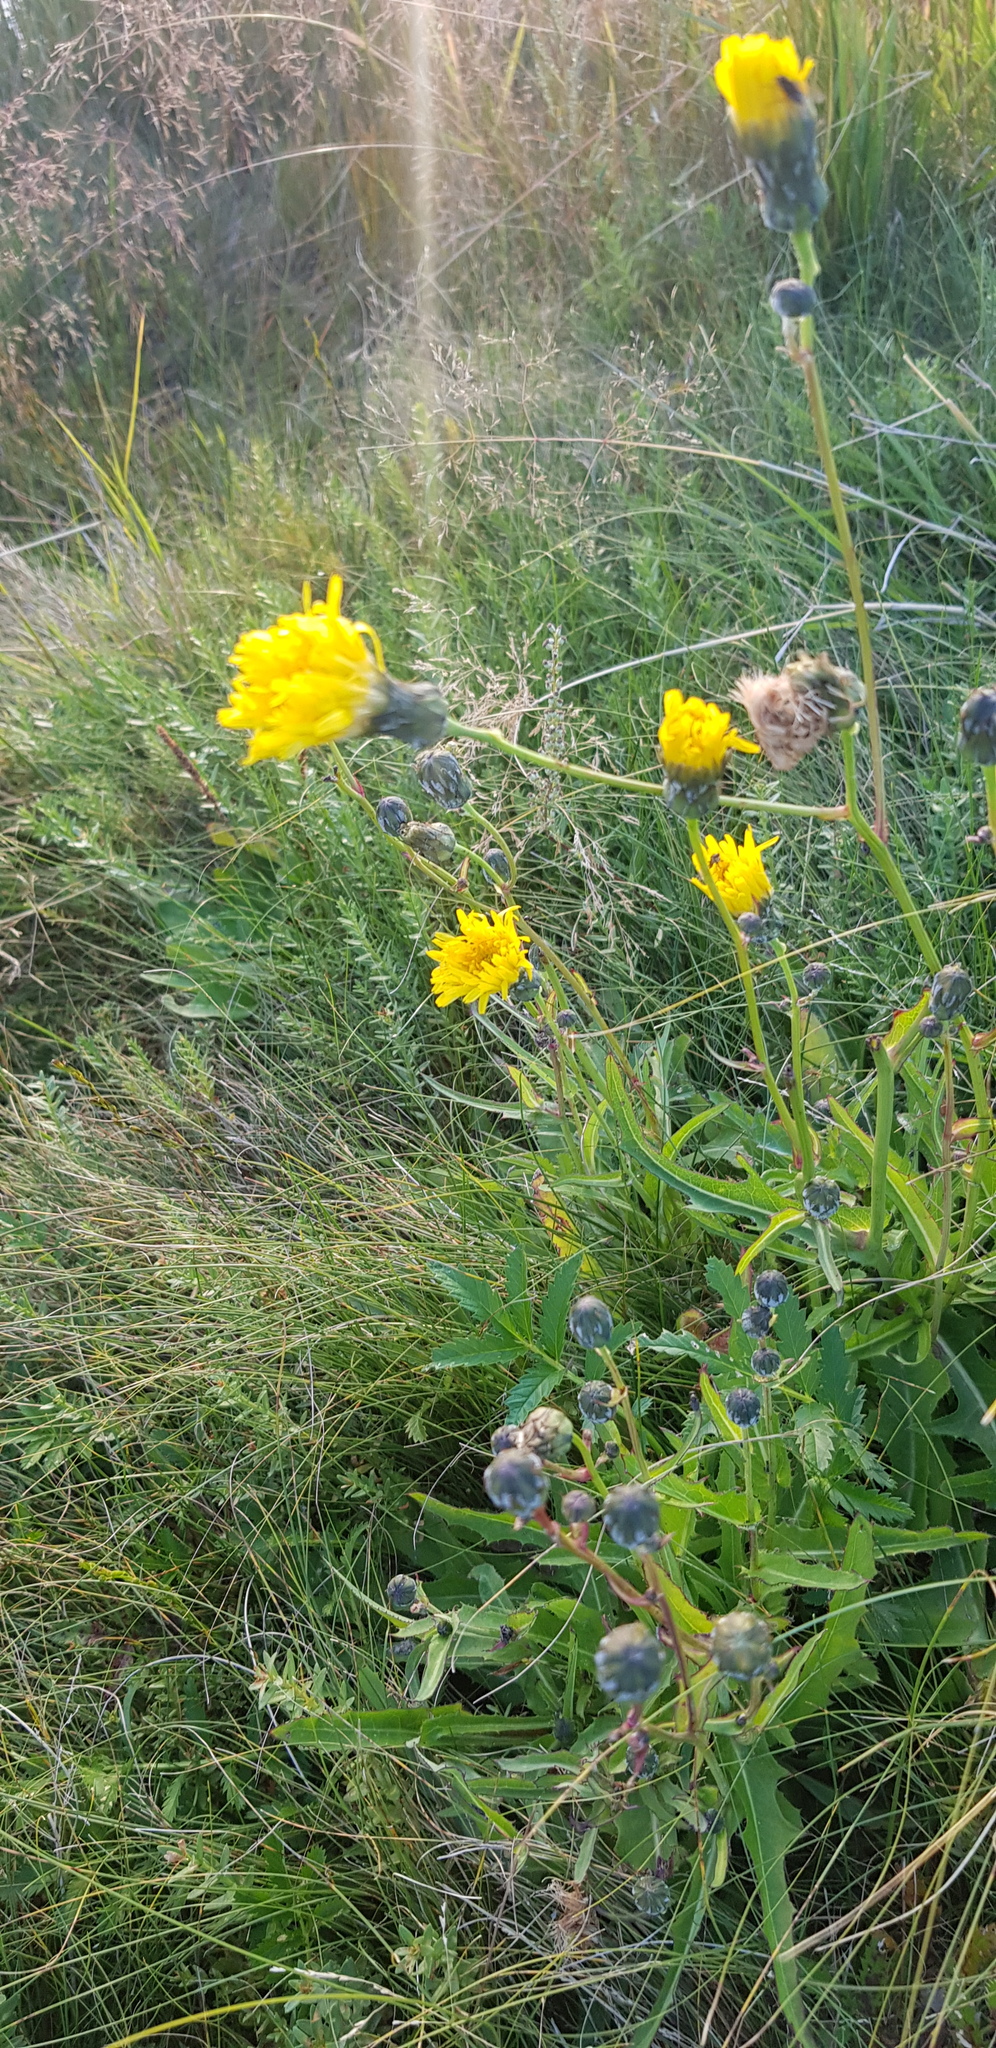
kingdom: Plantae
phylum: Tracheophyta
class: Magnoliopsida
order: Asterales
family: Asteraceae
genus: Sonchus
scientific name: Sonchus arvensis
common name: Perennial sow-thistle
